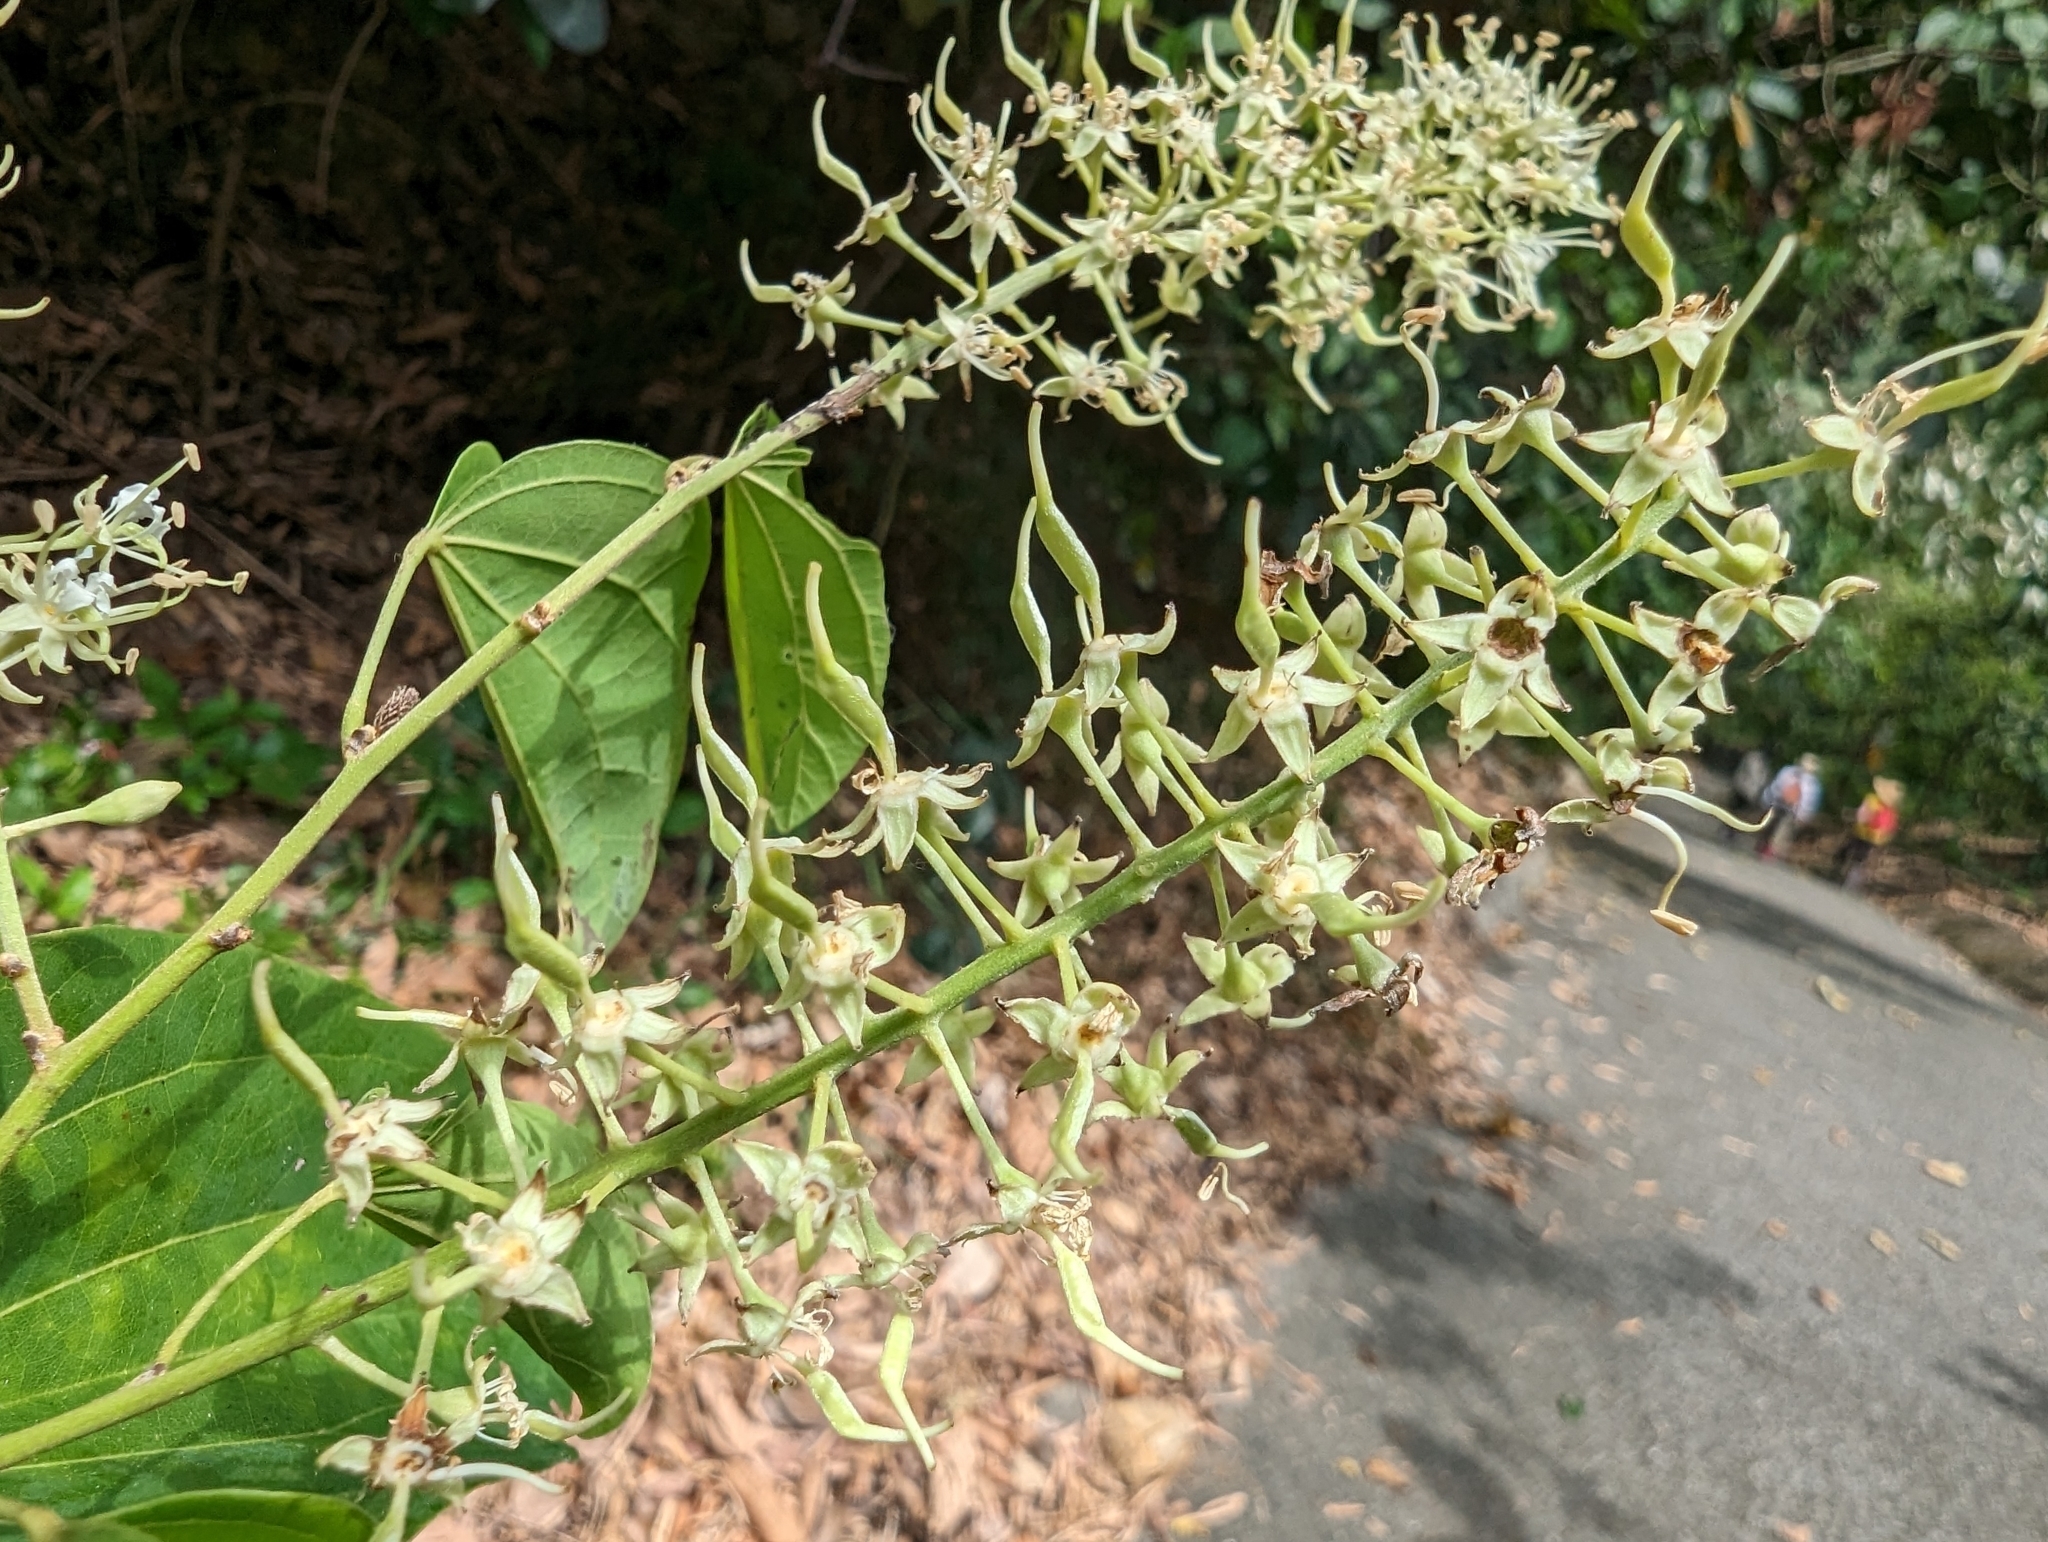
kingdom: Plantae
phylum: Tracheophyta
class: Magnoliopsida
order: Fabales
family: Fabaceae
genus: Phanera
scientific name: Phanera championii
